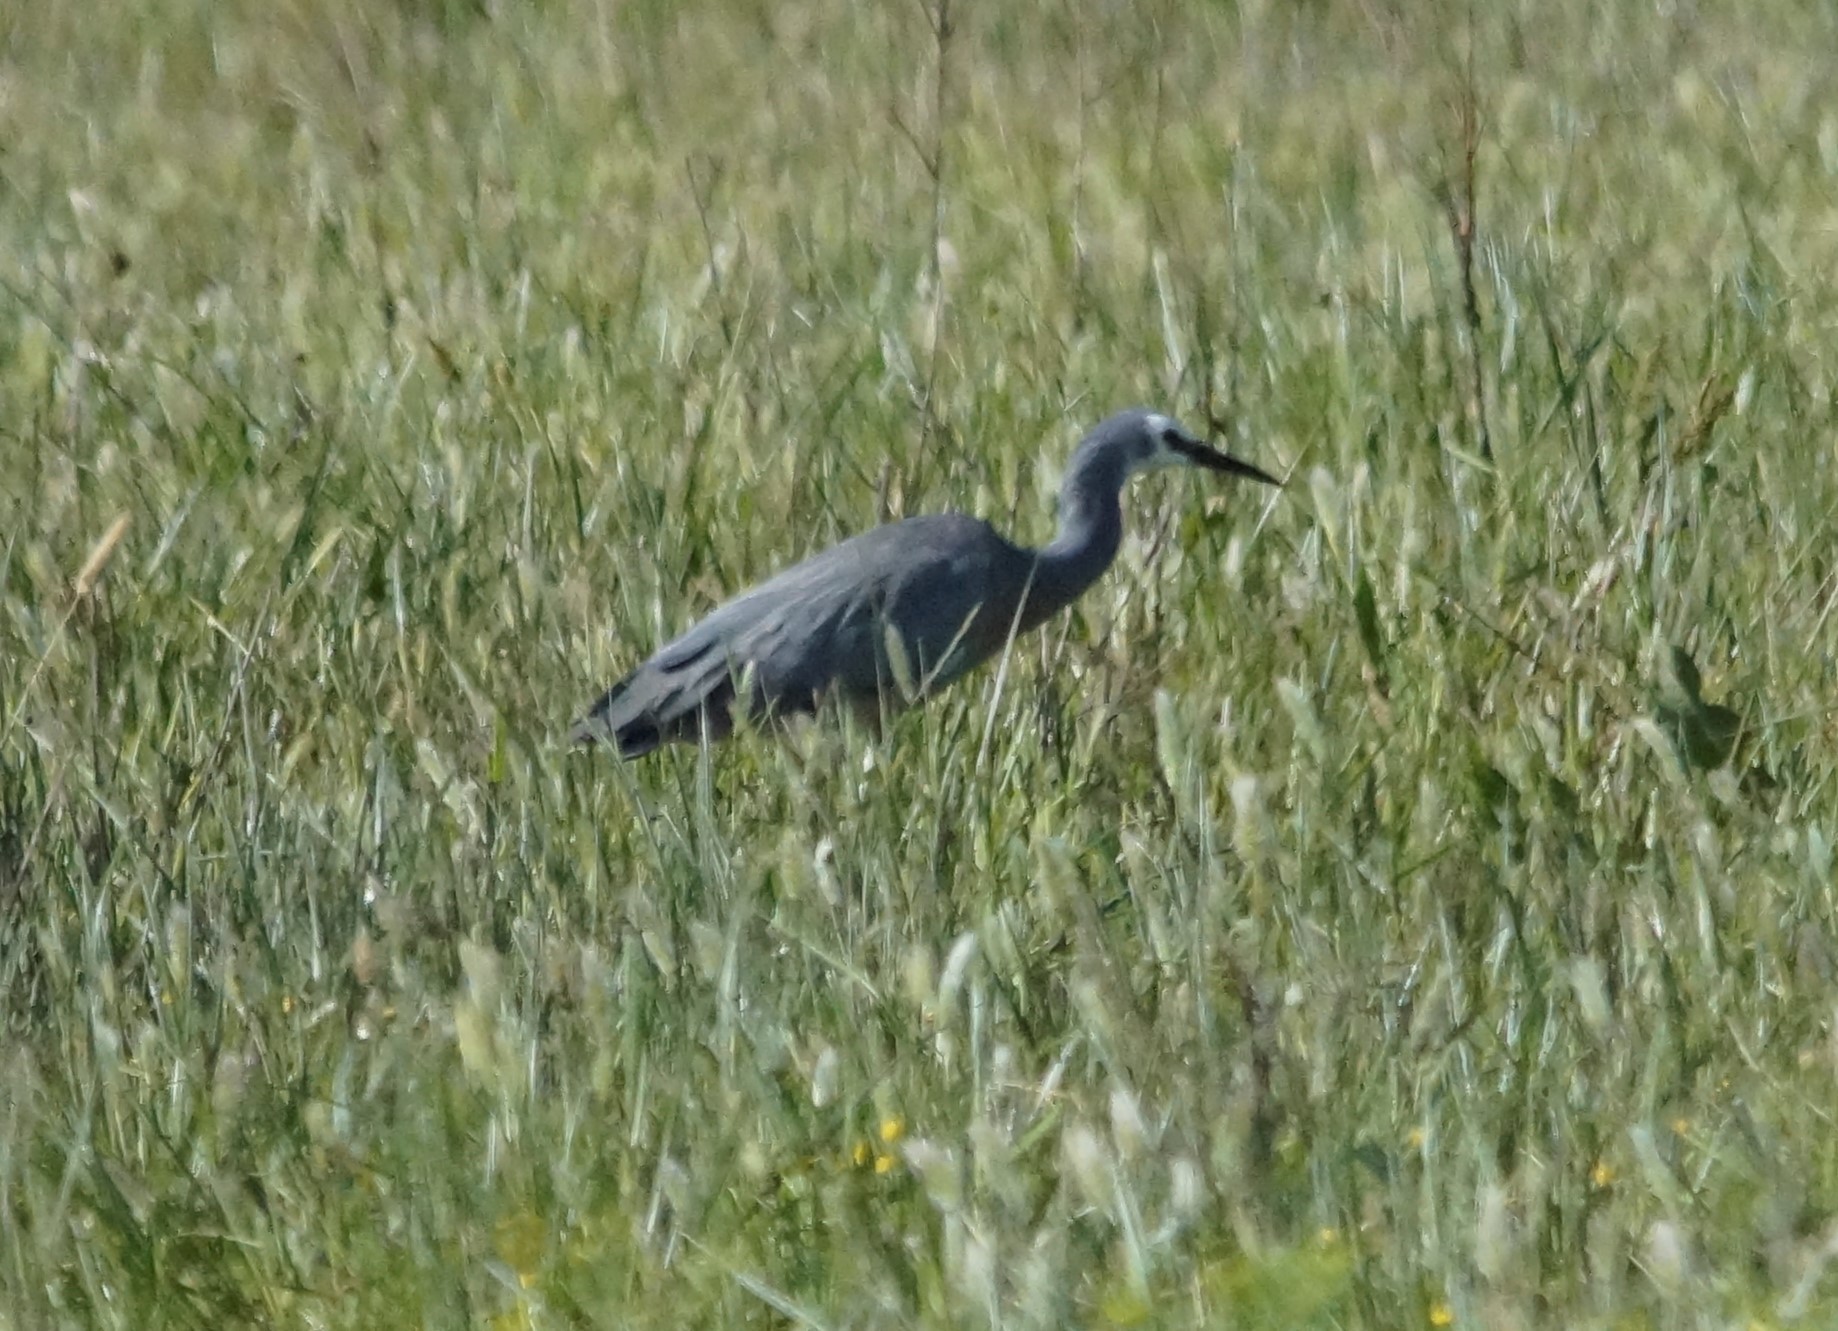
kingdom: Animalia
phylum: Chordata
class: Aves
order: Pelecaniformes
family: Ardeidae
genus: Egretta
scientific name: Egretta novaehollandiae
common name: White-faced heron
